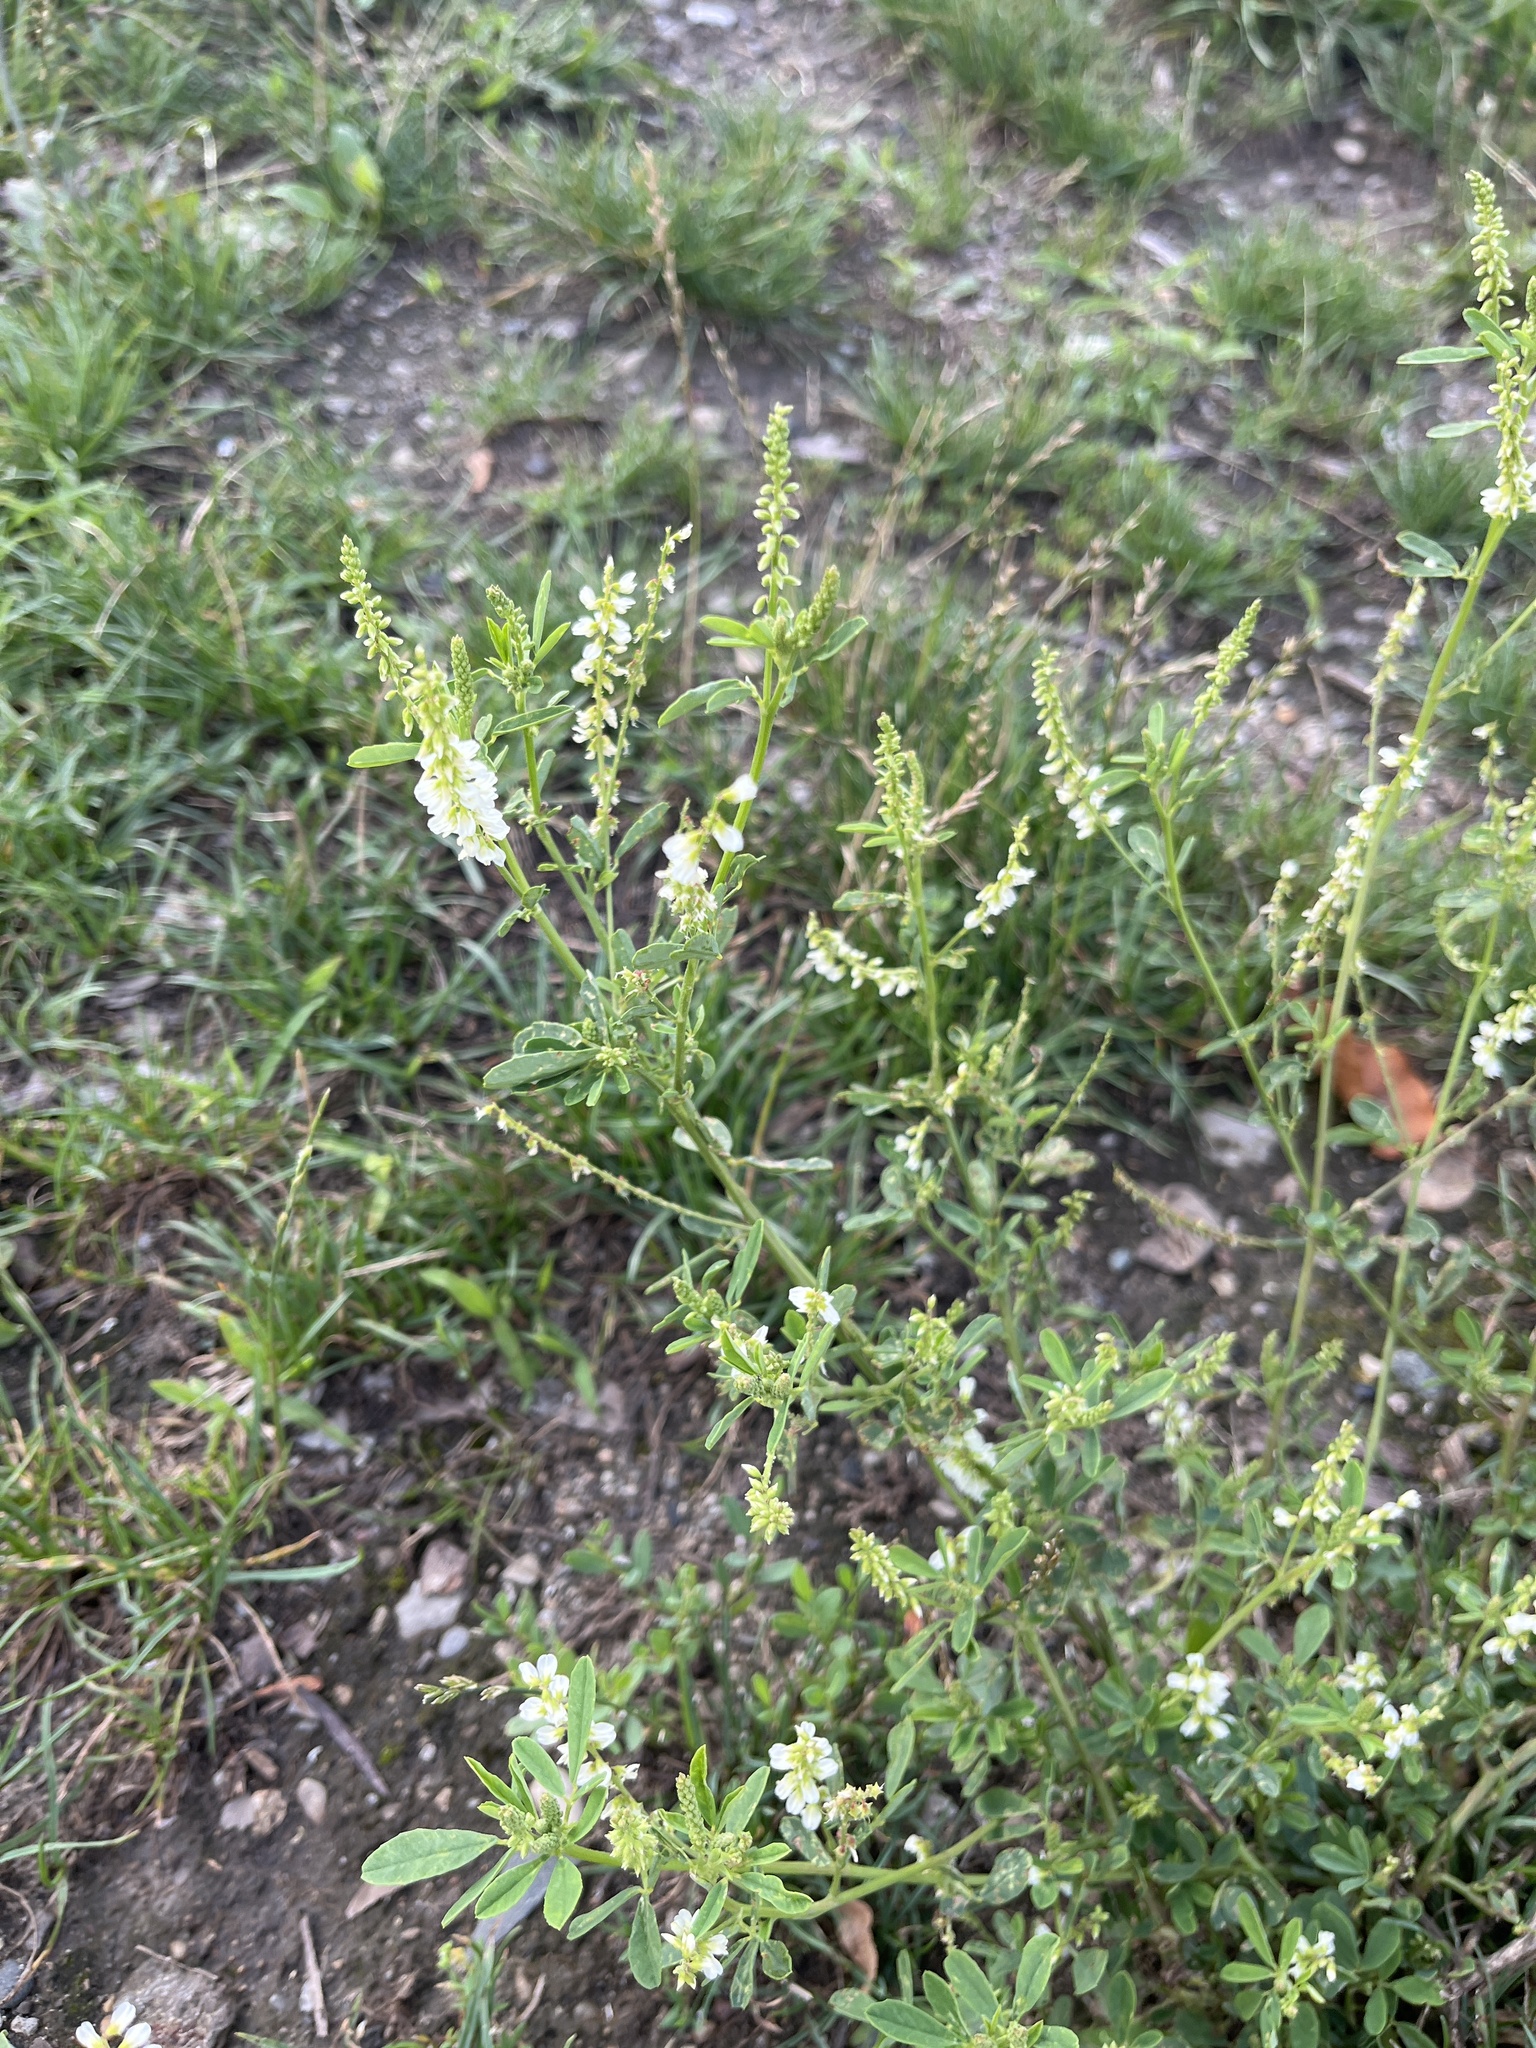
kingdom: Plantae
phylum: Tracheophyta
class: Magnoliopsida
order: Fabales
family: Fabaceae
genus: Melilotus
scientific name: Melilotus albus
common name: White melilot
